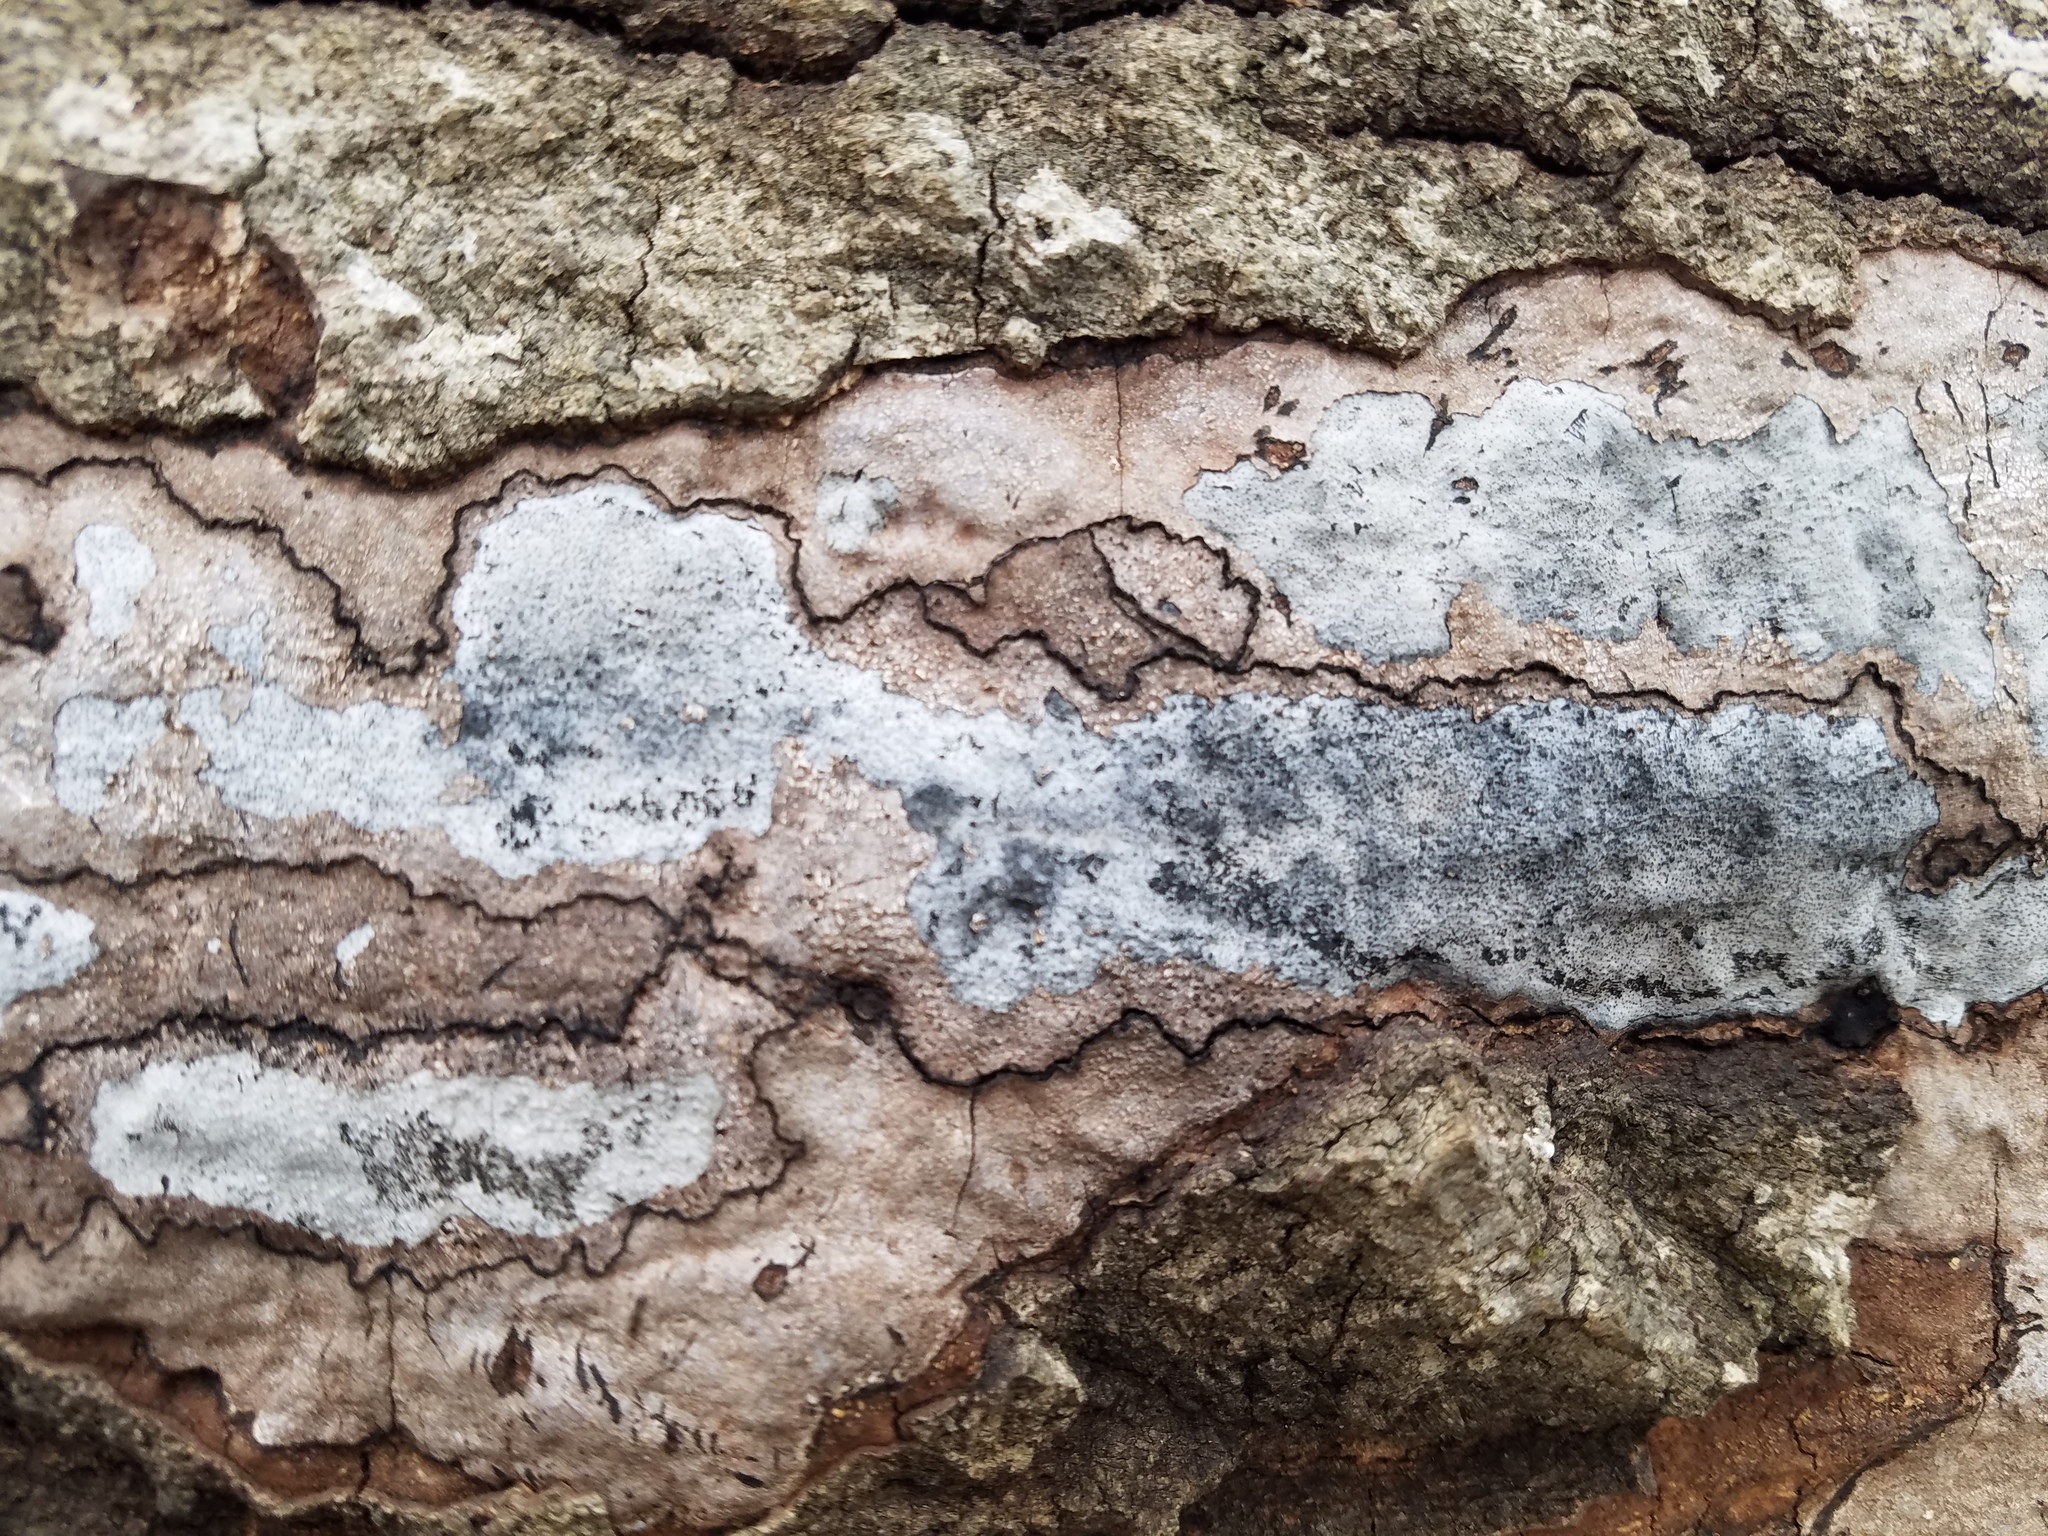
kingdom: Fungi
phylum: Ascomycota
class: Sordariomycetes
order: Xylariales
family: Graphostromataceae
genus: Biscogniauxia
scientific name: Biscogniauxia atropunctata
